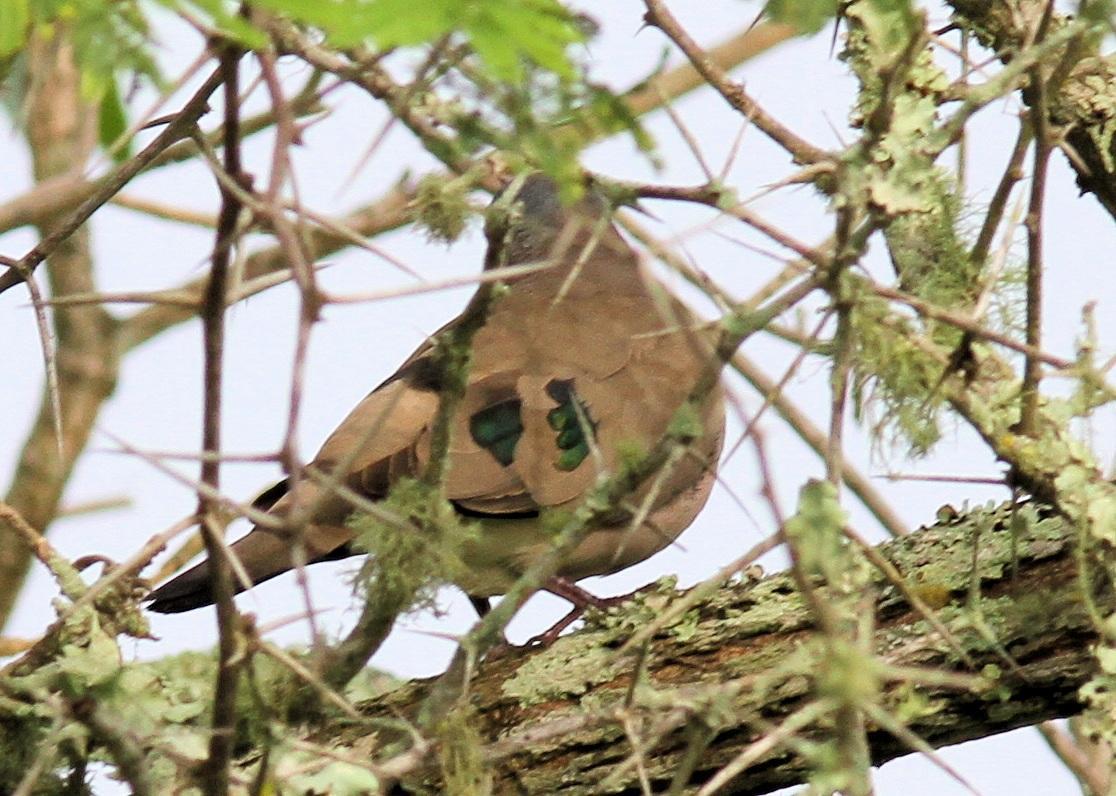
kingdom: Animalia
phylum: Chordata
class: Aves
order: Columbiformes
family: Columbidae
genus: Turtur
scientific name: Turtur chalcospilos
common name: Emerald-spotted wood dove
